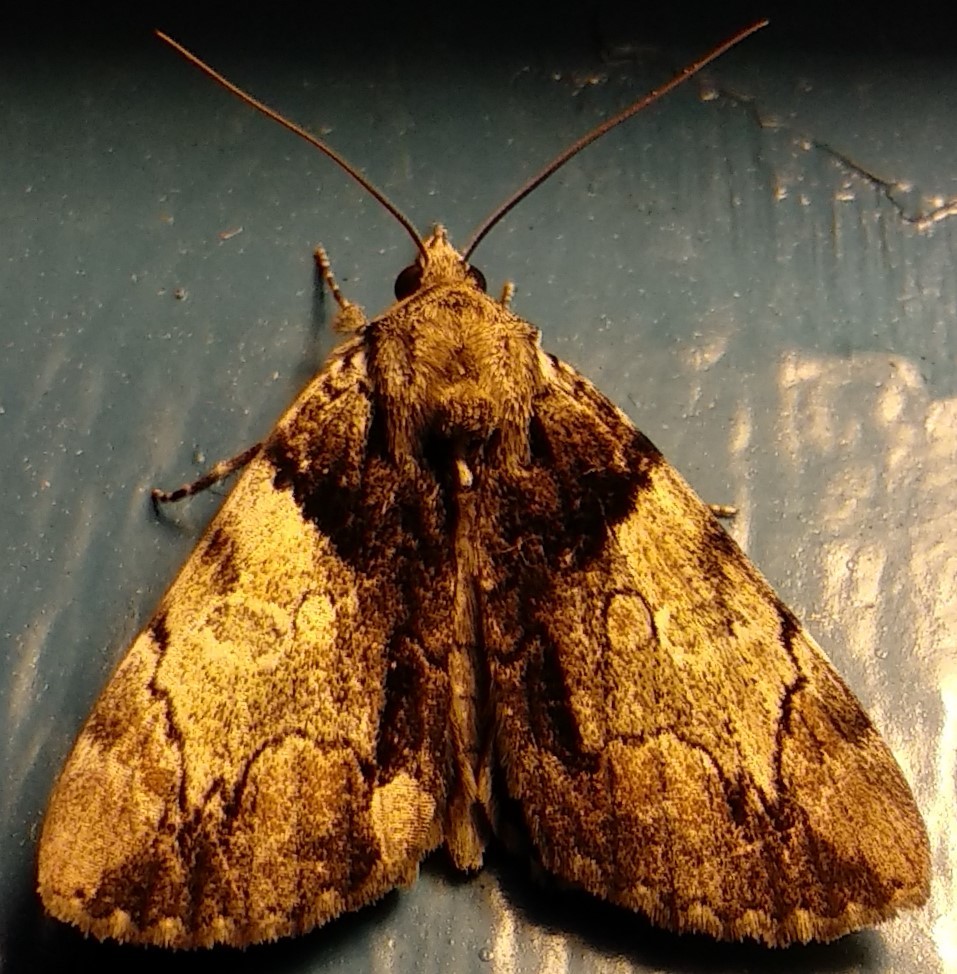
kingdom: Animalia
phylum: Arthropoda
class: Insecta
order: Lepidoptera
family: Erebidae
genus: Catocala
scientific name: Catocala crataegi
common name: Hawthorn underwing moth
